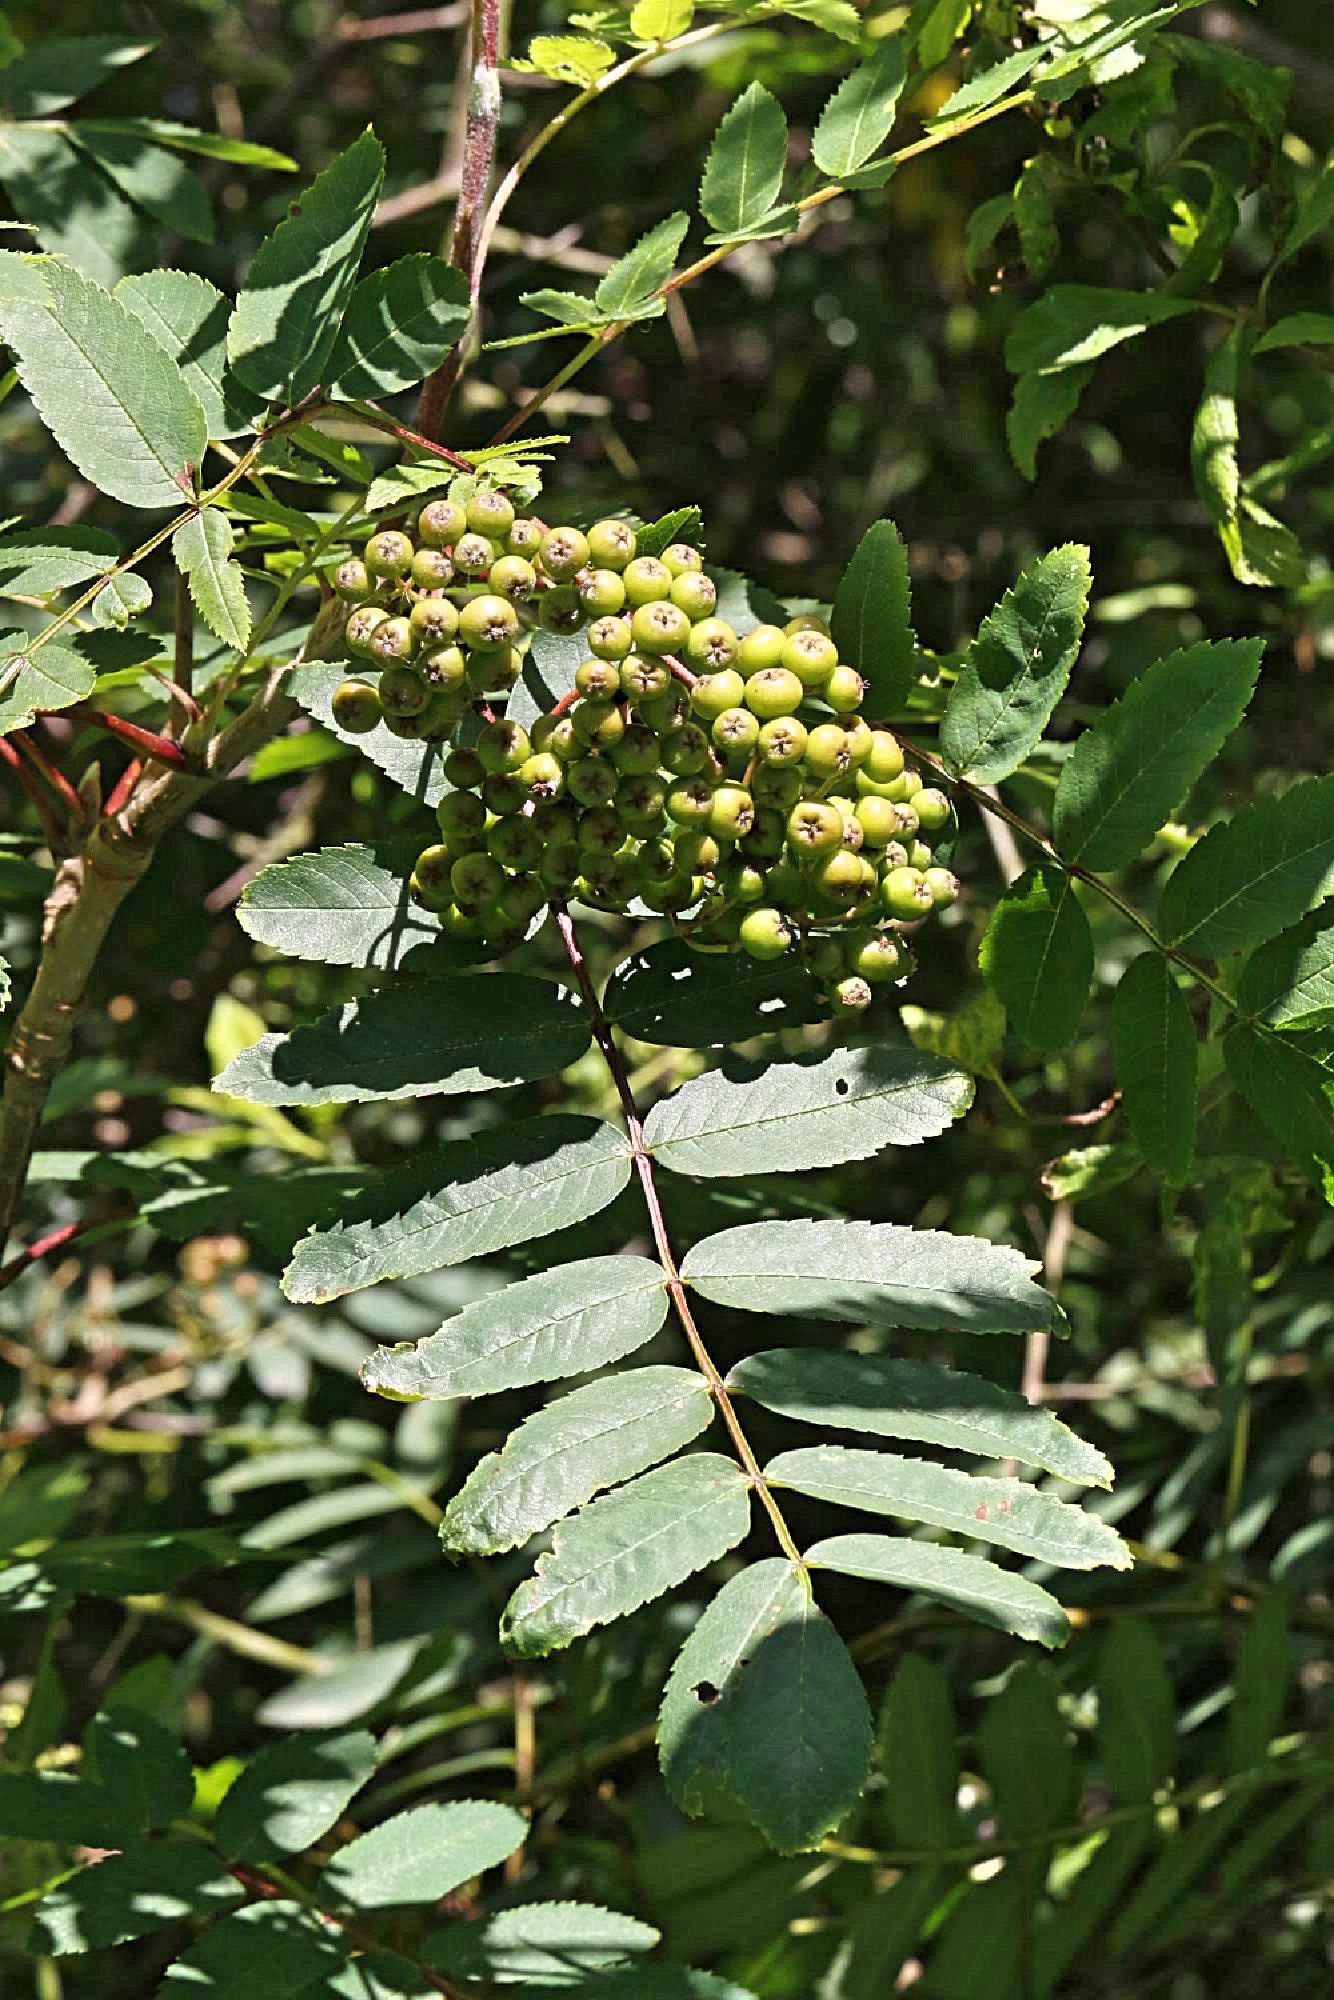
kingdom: Plantae
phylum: Tracheophyta
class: Magnoliopsida
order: Rosales
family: Rosaceae
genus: Sorbus
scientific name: Sorbus aucuparia
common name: Rowan
